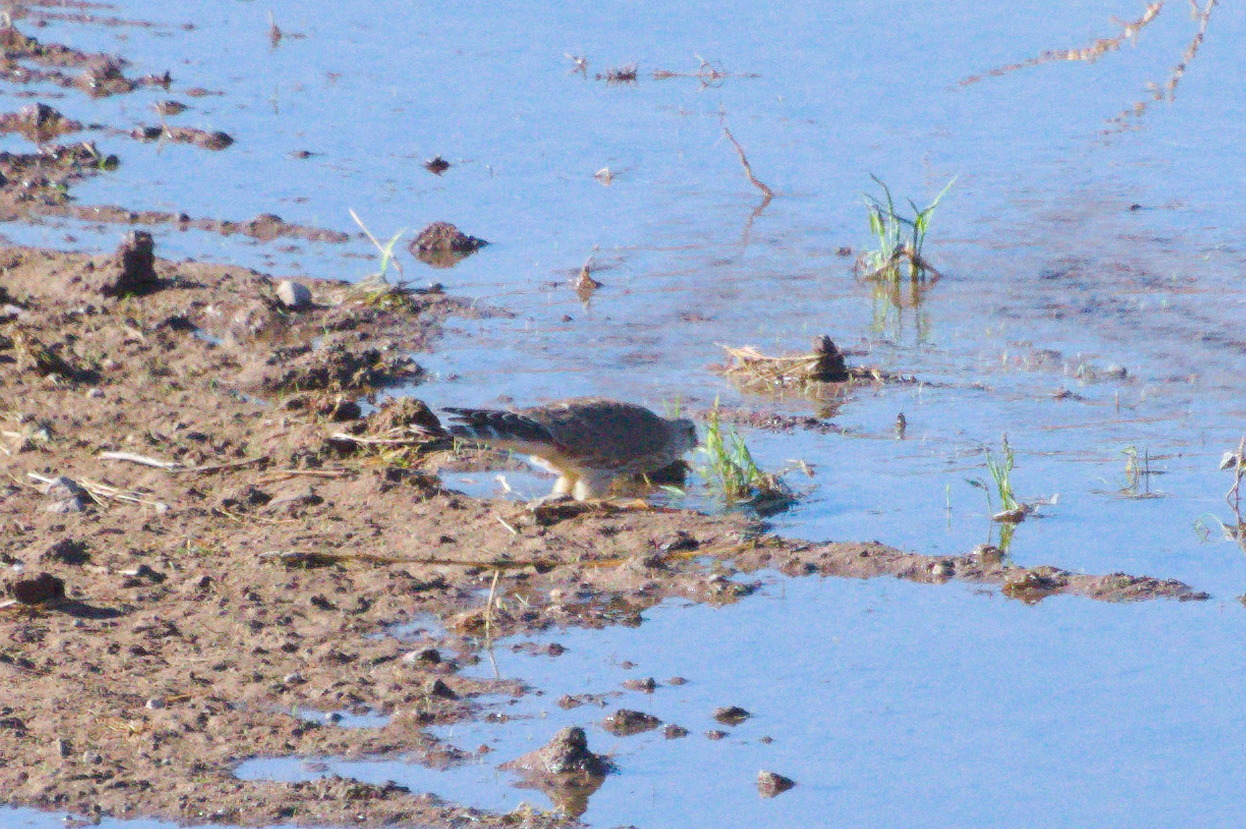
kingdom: Animalia
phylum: Chordata
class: Aves
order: Falconiformes
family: Falconidae
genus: Falco
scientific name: Falco columbarius
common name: Merlin
